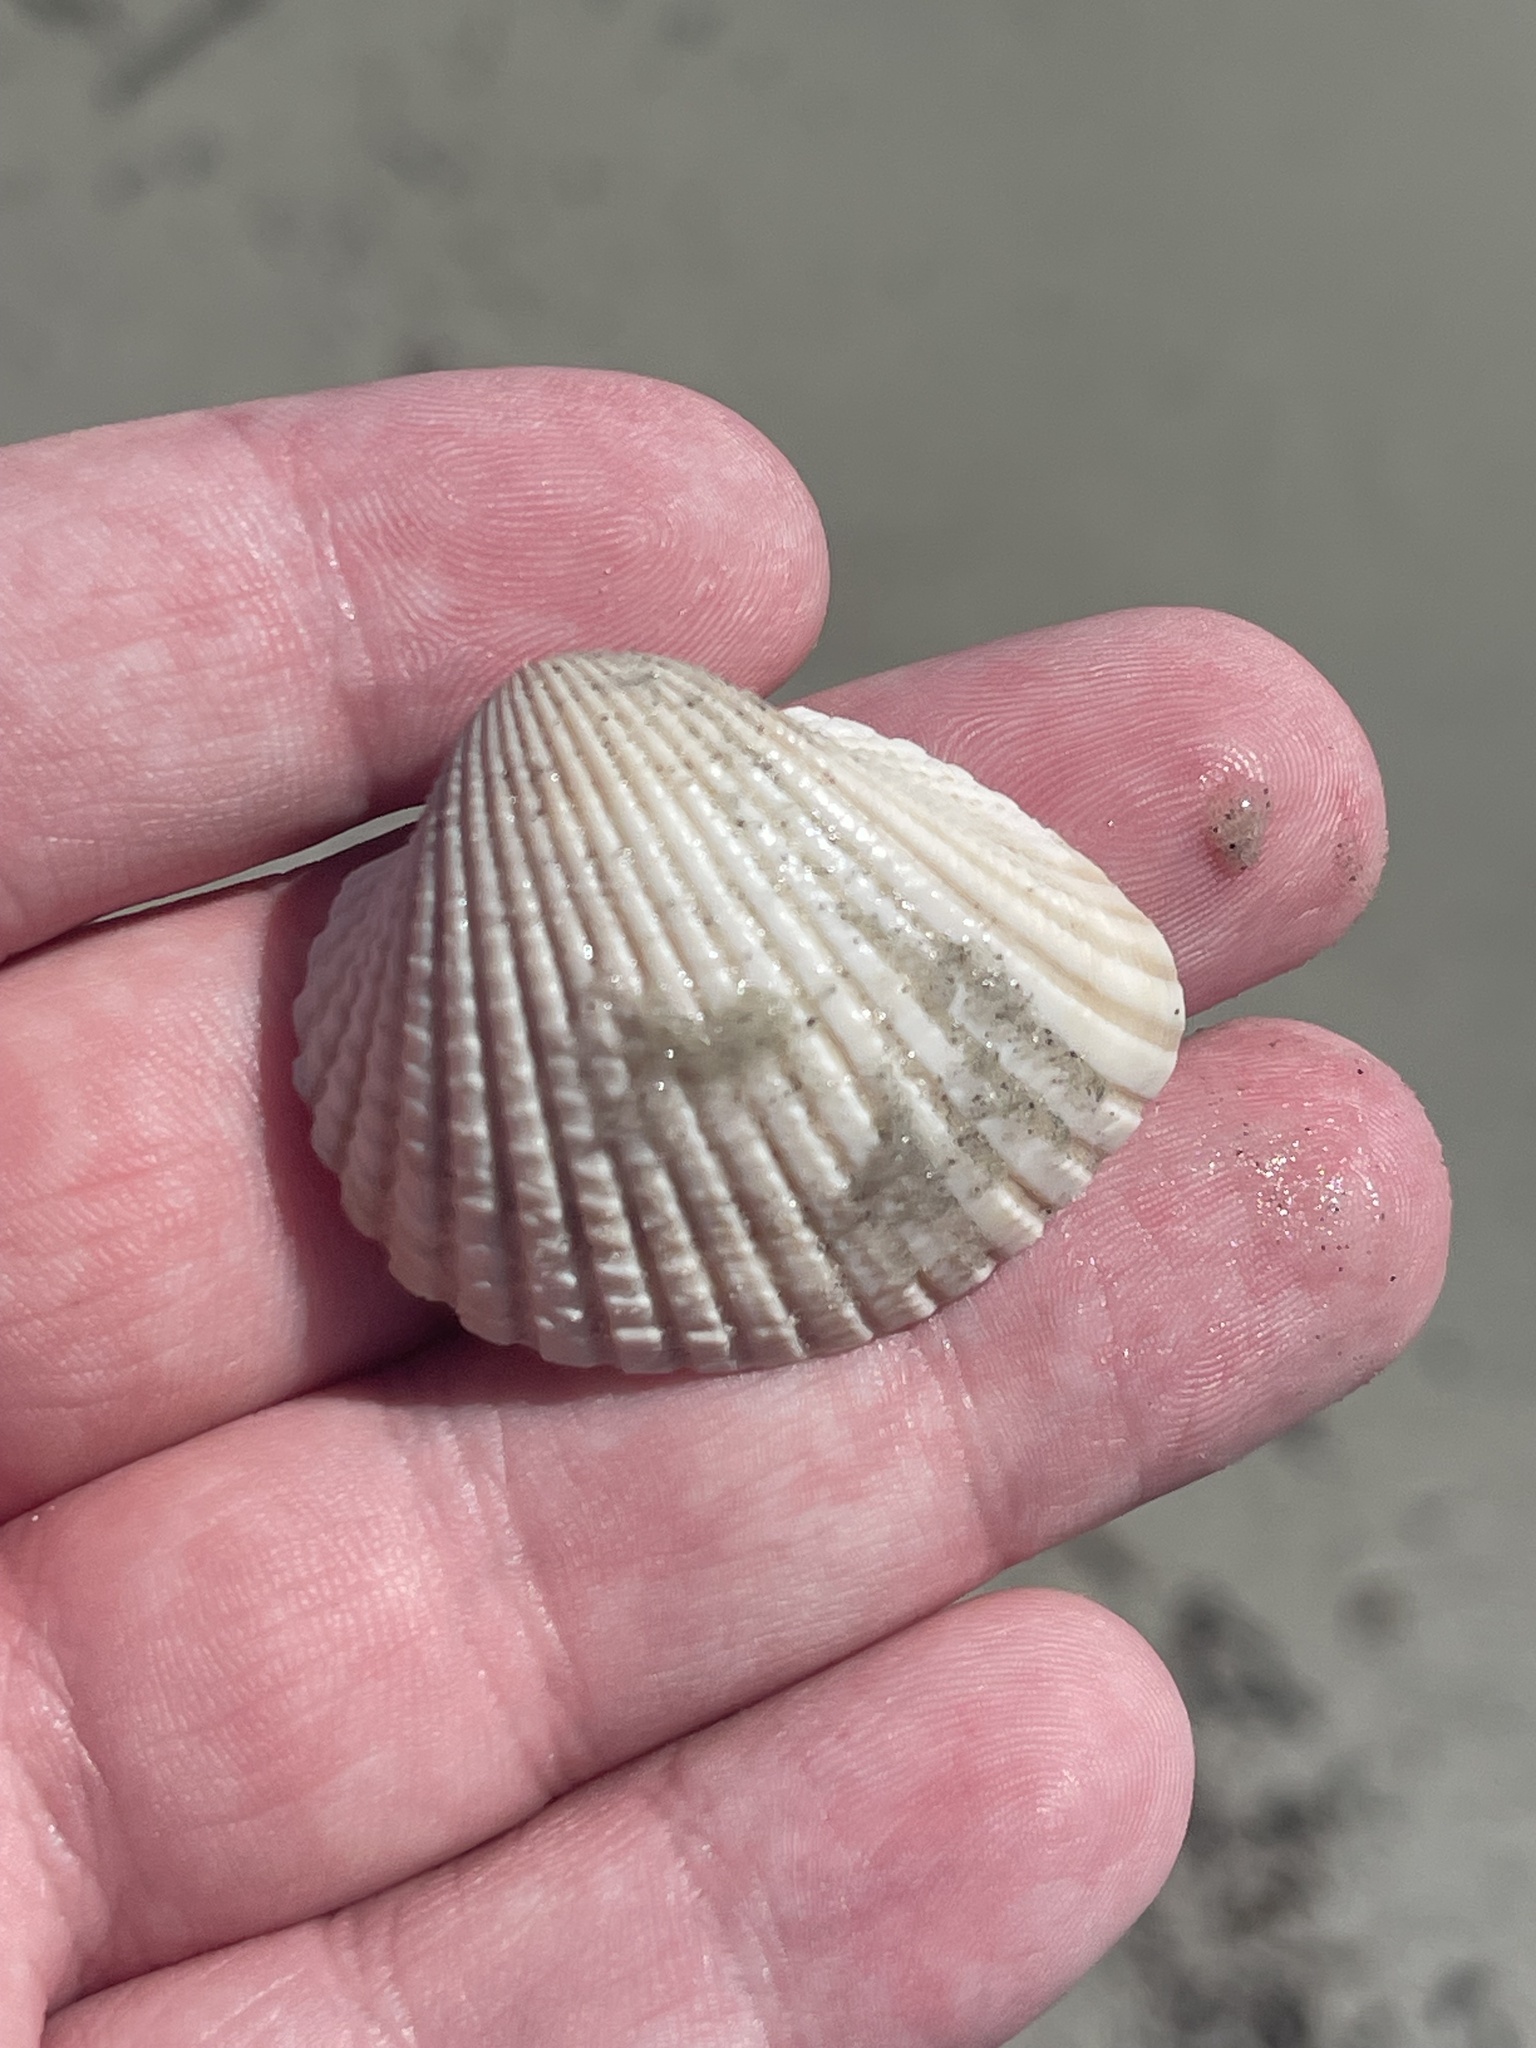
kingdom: Animalia
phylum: Mollusca
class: Bivalvia
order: Arcida
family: Arcidae
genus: Anadara
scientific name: Anadara brasiliana
